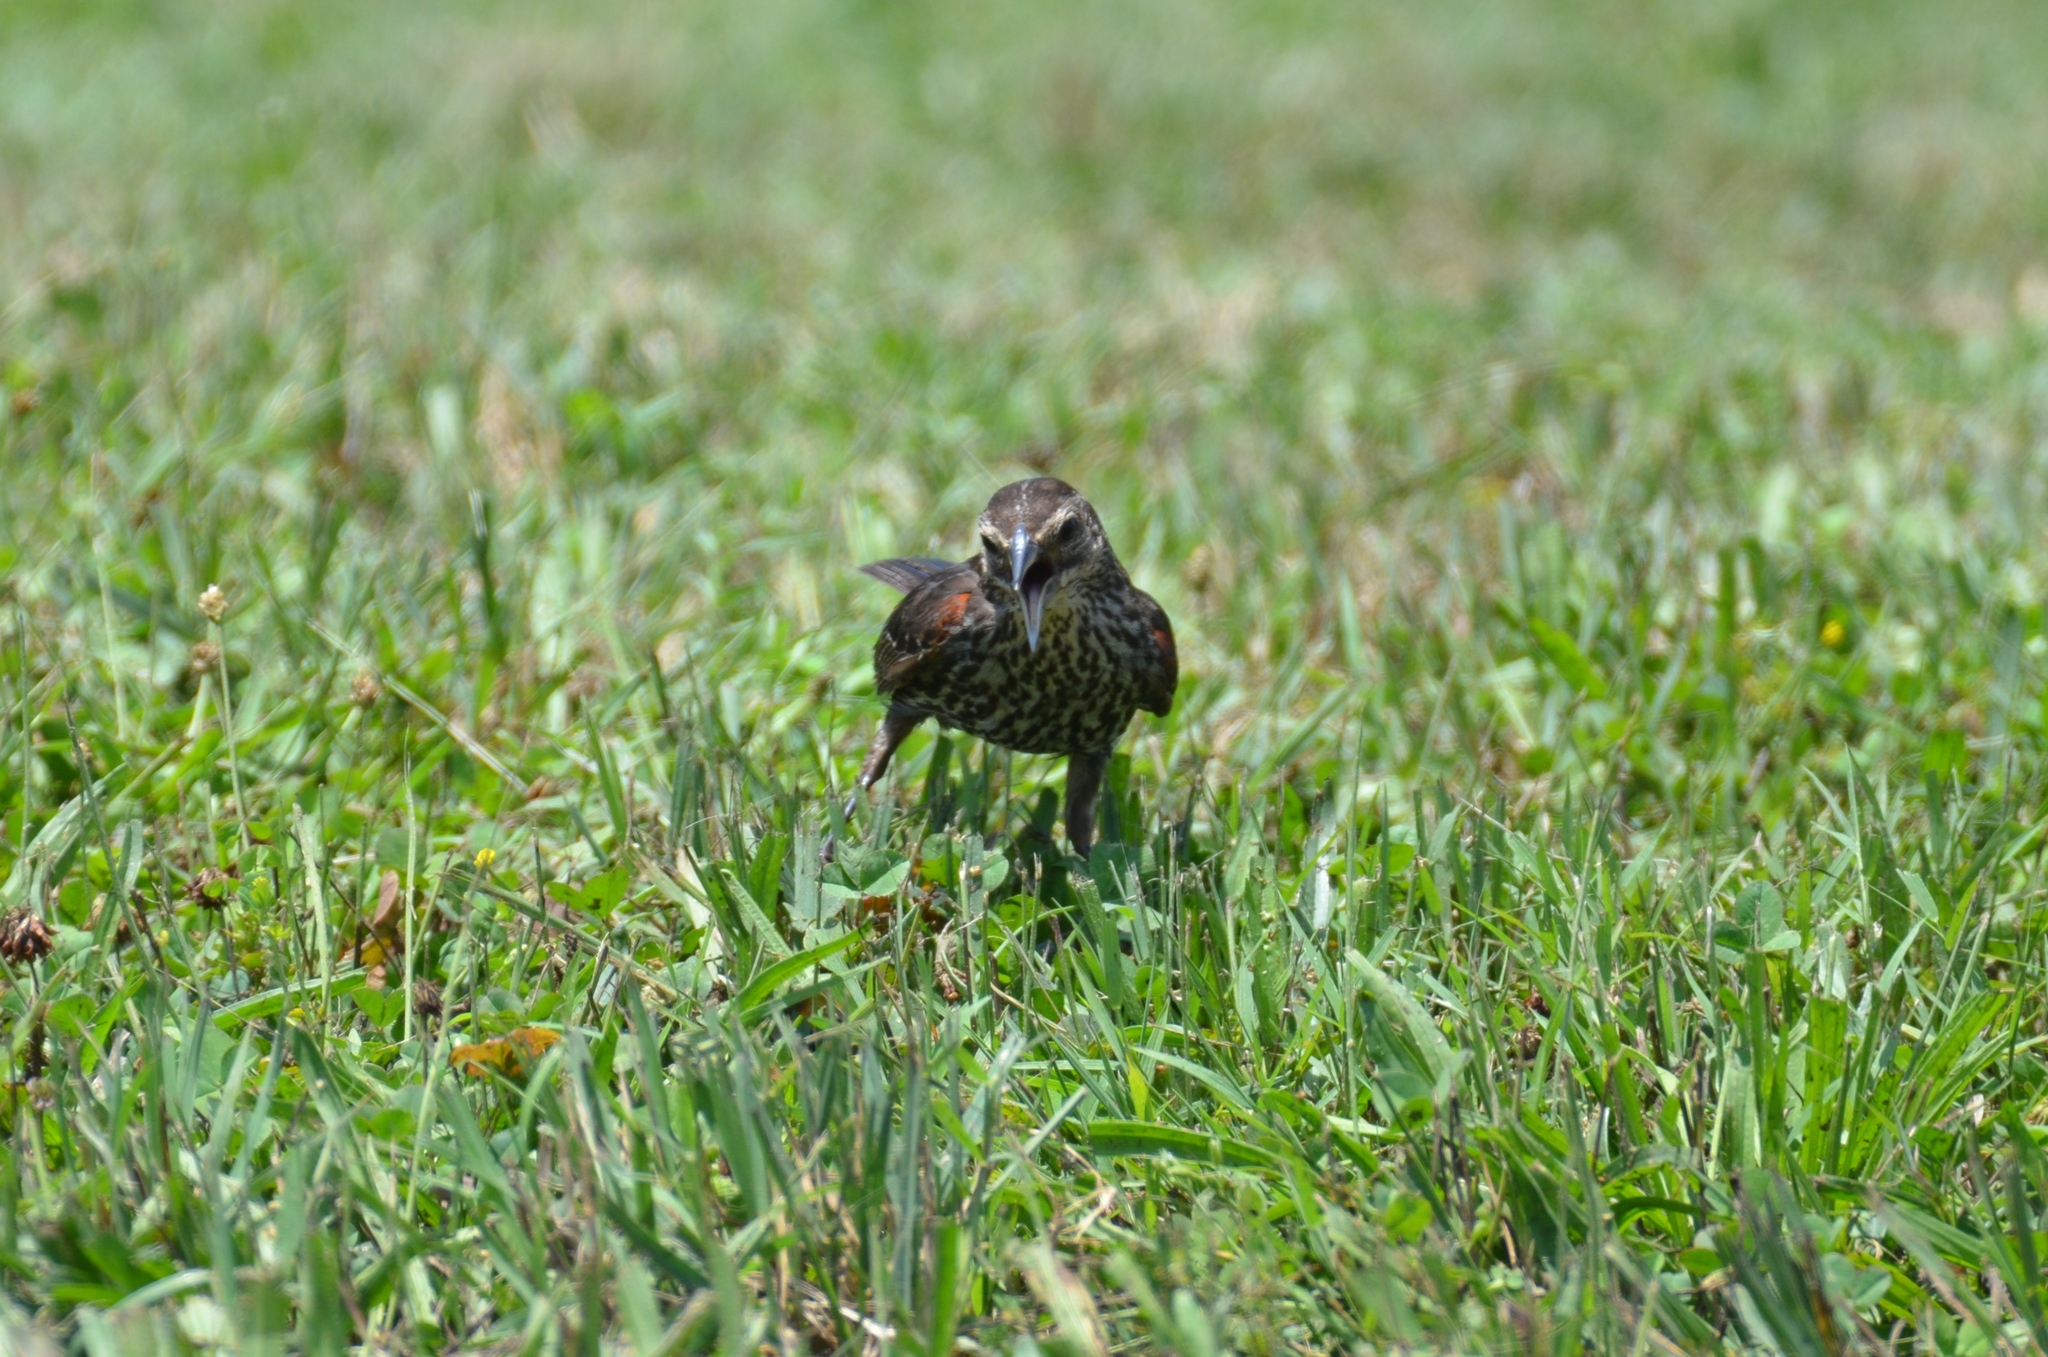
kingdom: Animalia
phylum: Chordata
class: Aves
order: Passeriformes
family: Icteridae
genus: Agelaius
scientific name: Agelaius phoeniceus
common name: Red-winged blackbird
